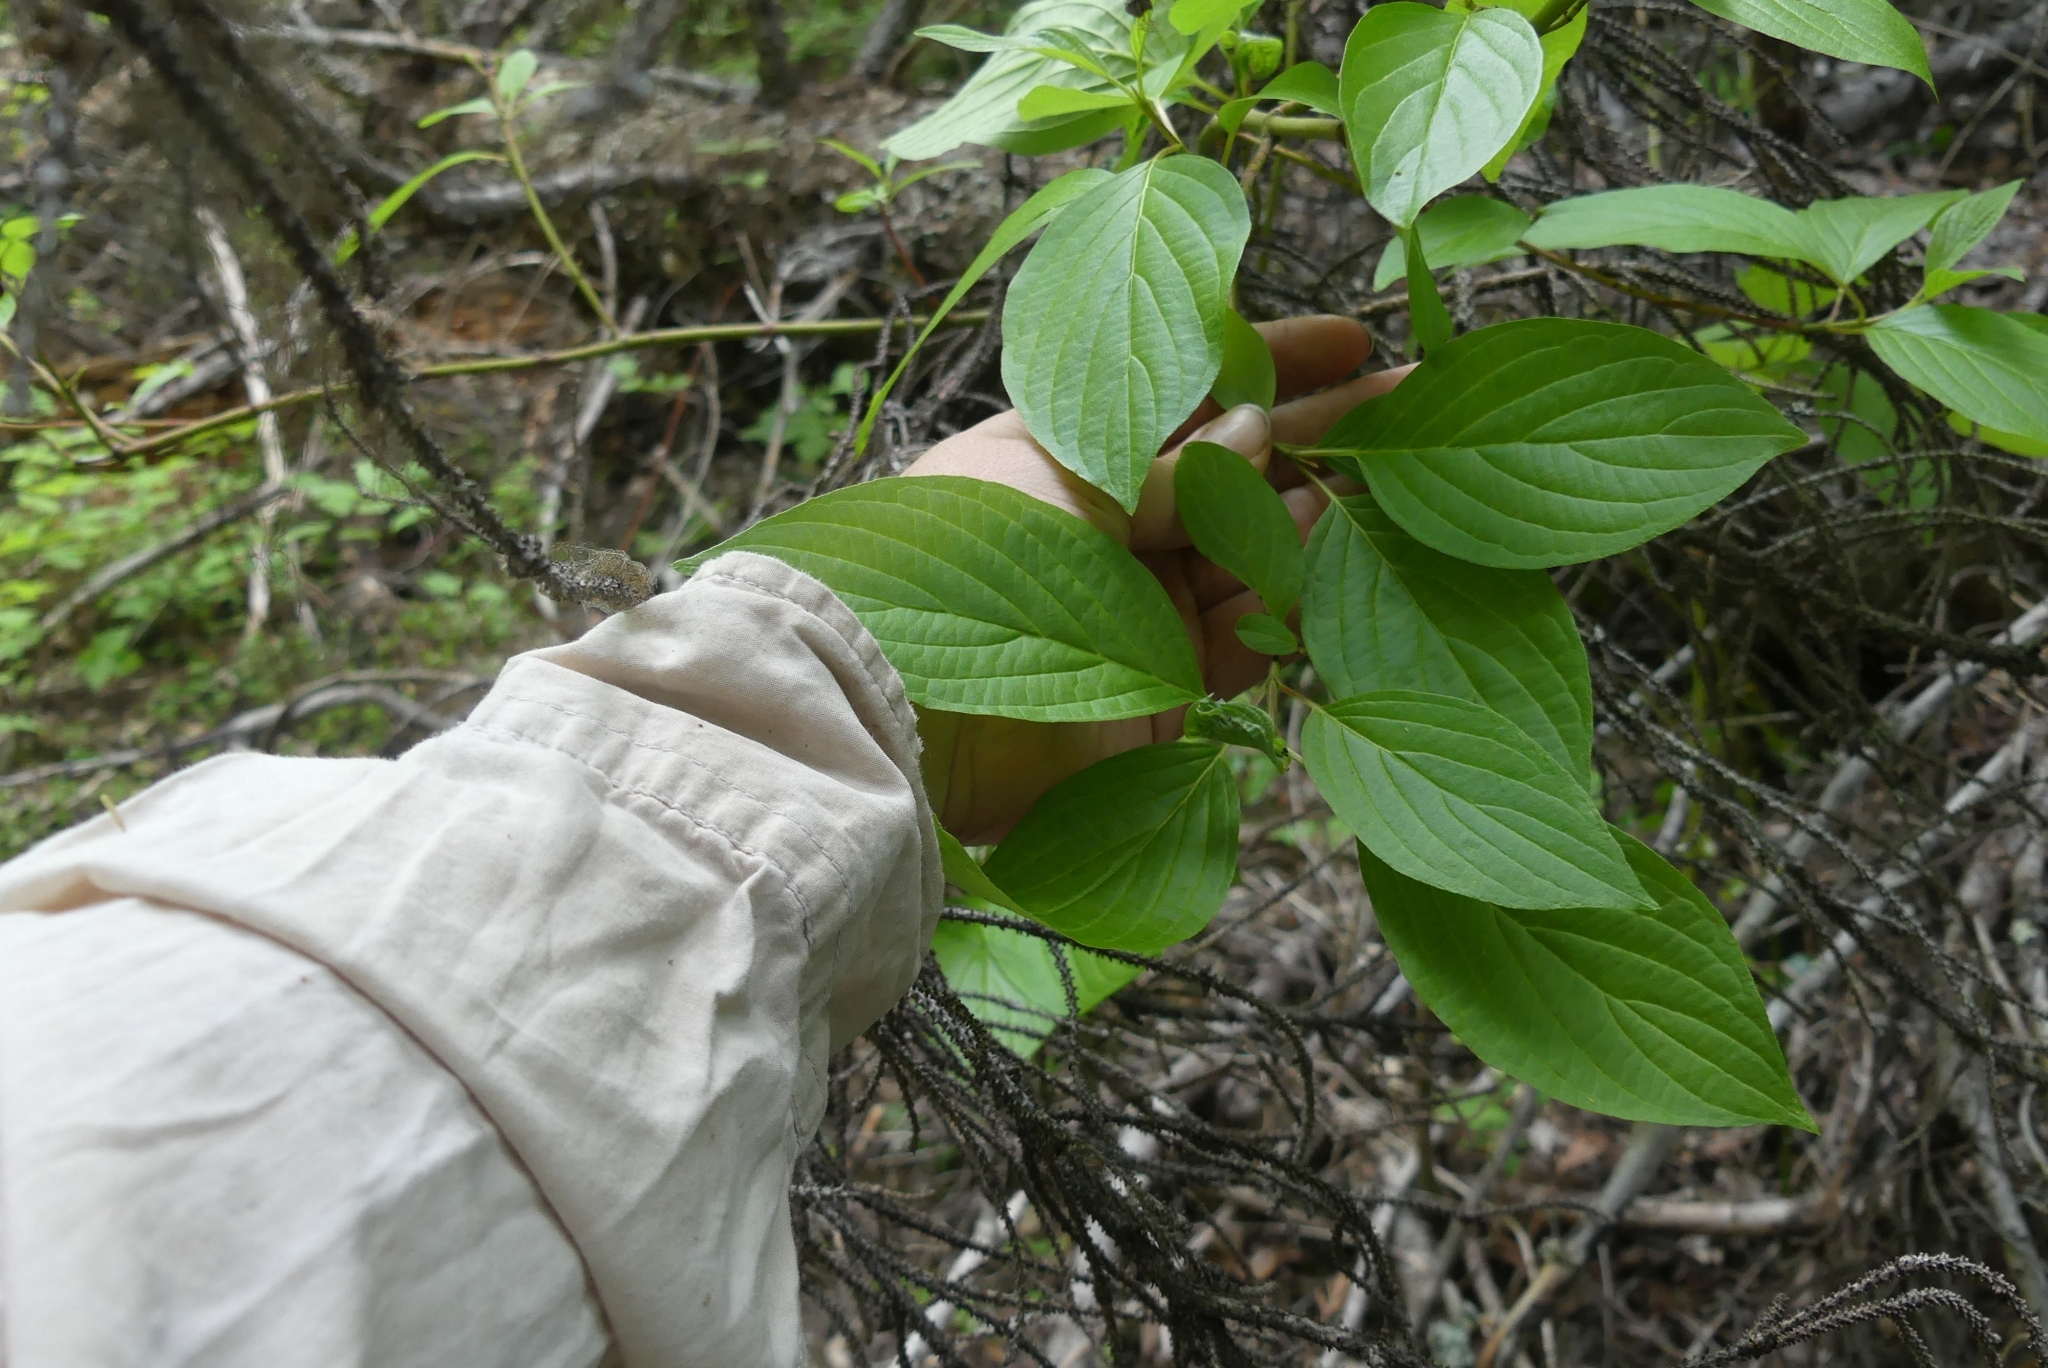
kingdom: Plantae
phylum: Tracheophyta
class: Magnoliopsida
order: Cornales
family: Cornaceae
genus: Cornus
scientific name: Cornus sericea
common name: Red-osier dogwood
